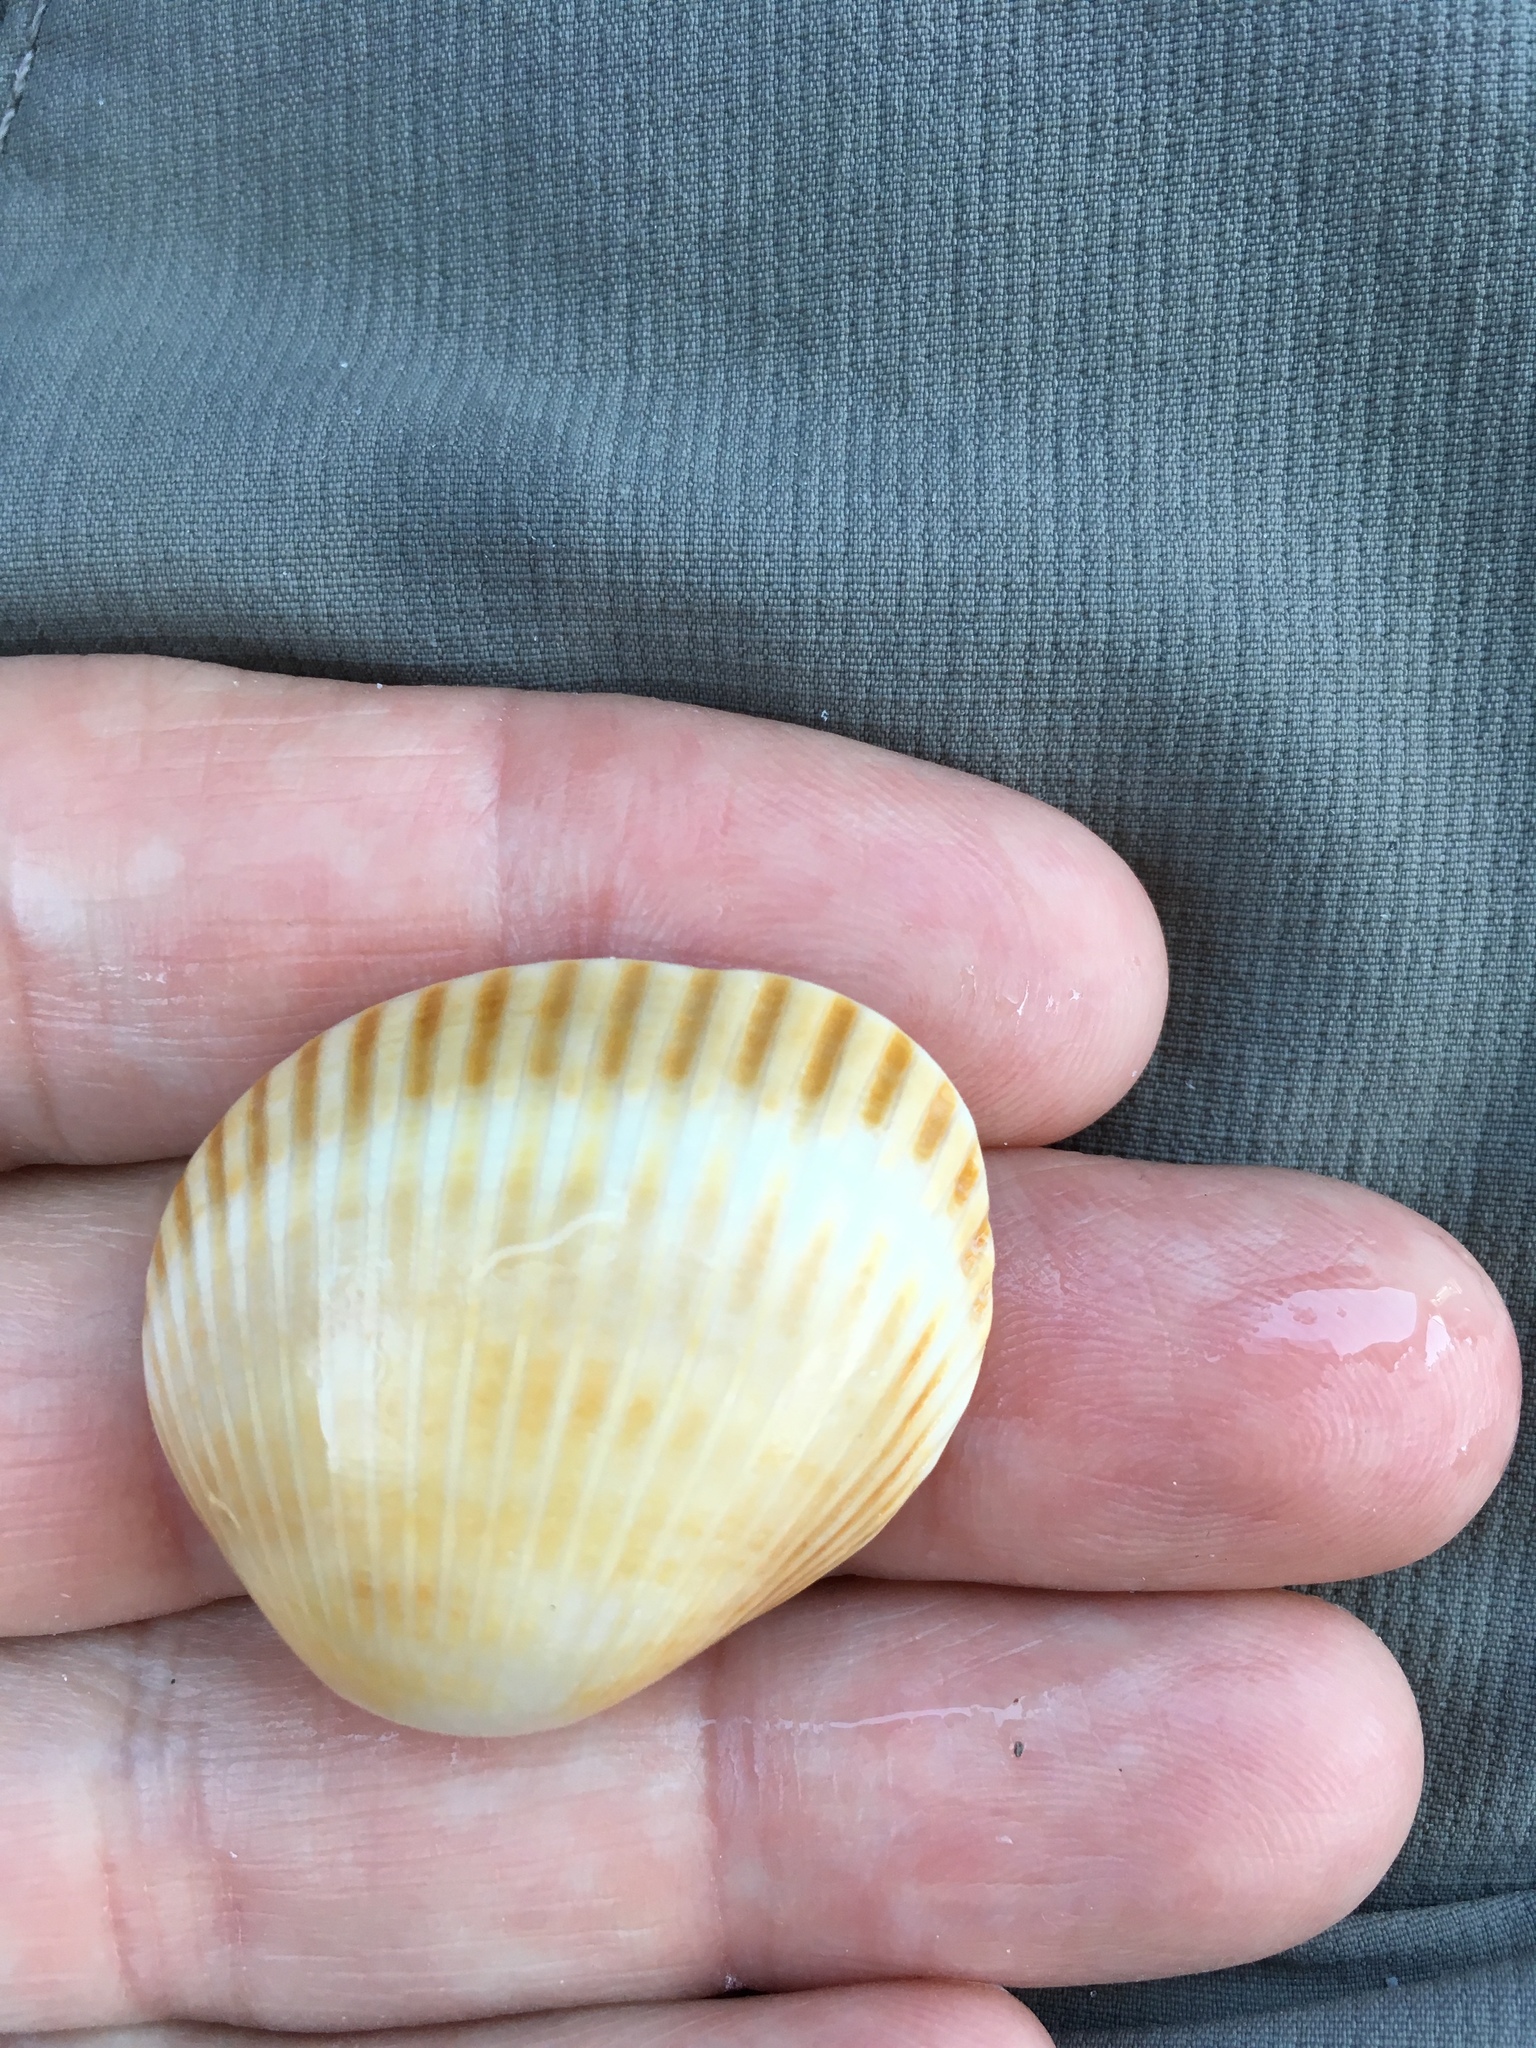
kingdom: Animalia
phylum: Mollusca
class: Bivalvia
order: Arcida
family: Arcidae
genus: Lunarca
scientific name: Lunarca ovalis
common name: Blood ark
